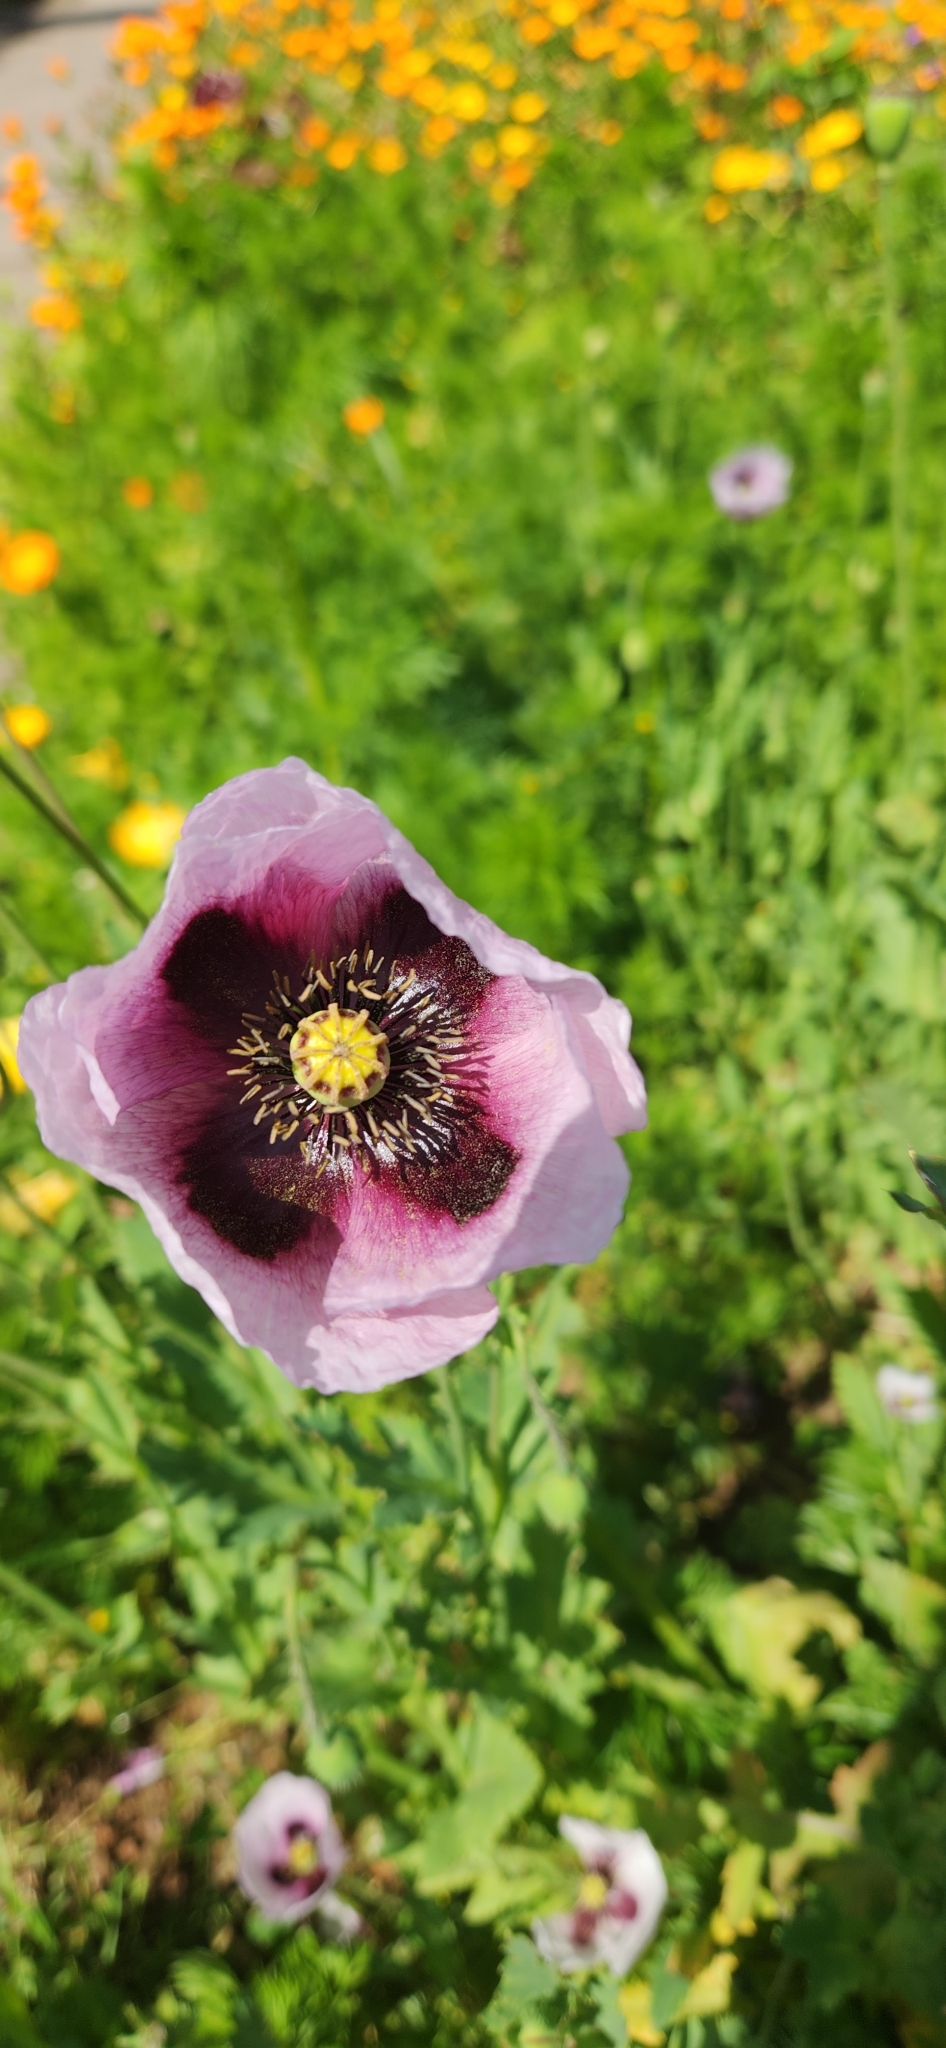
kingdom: Plantae
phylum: Tracheophyta
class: Magnoliopsida
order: Ranunculales
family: Papaveraceae
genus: Papaver
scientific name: Papaver somniferum
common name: Opium poppy
